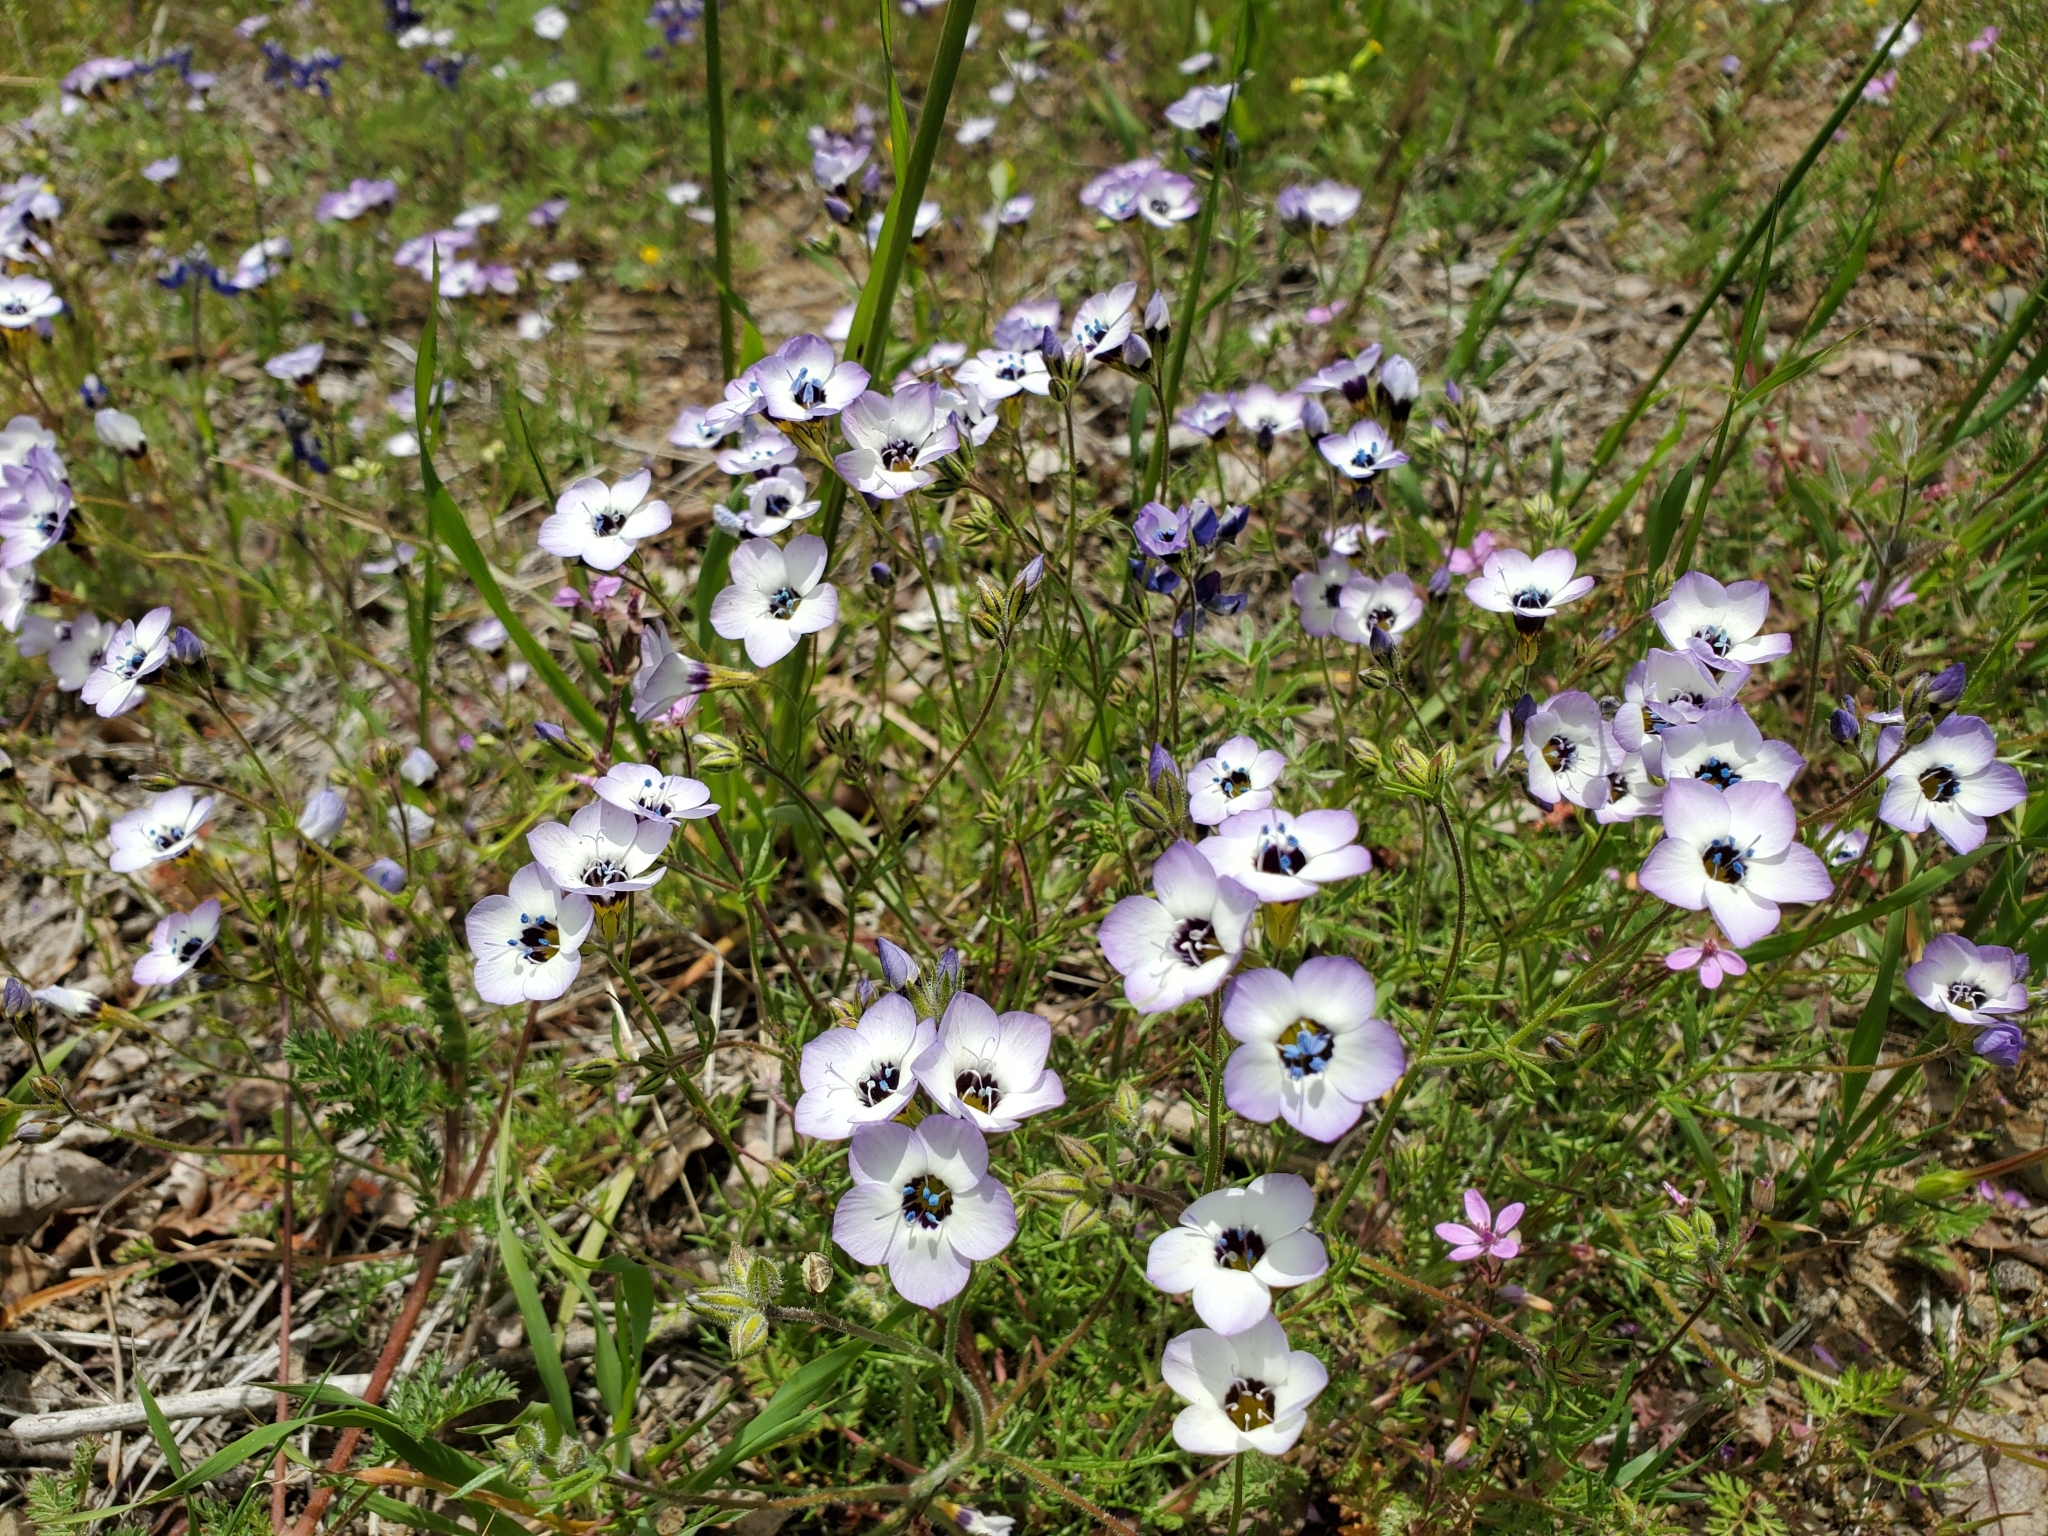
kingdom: Plantae
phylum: Tracheophyta
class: Magnoliopsida
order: Ericales
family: Polemoniaceae
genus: Gilia
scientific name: Gilia tricolor
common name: Bird's-eyes
